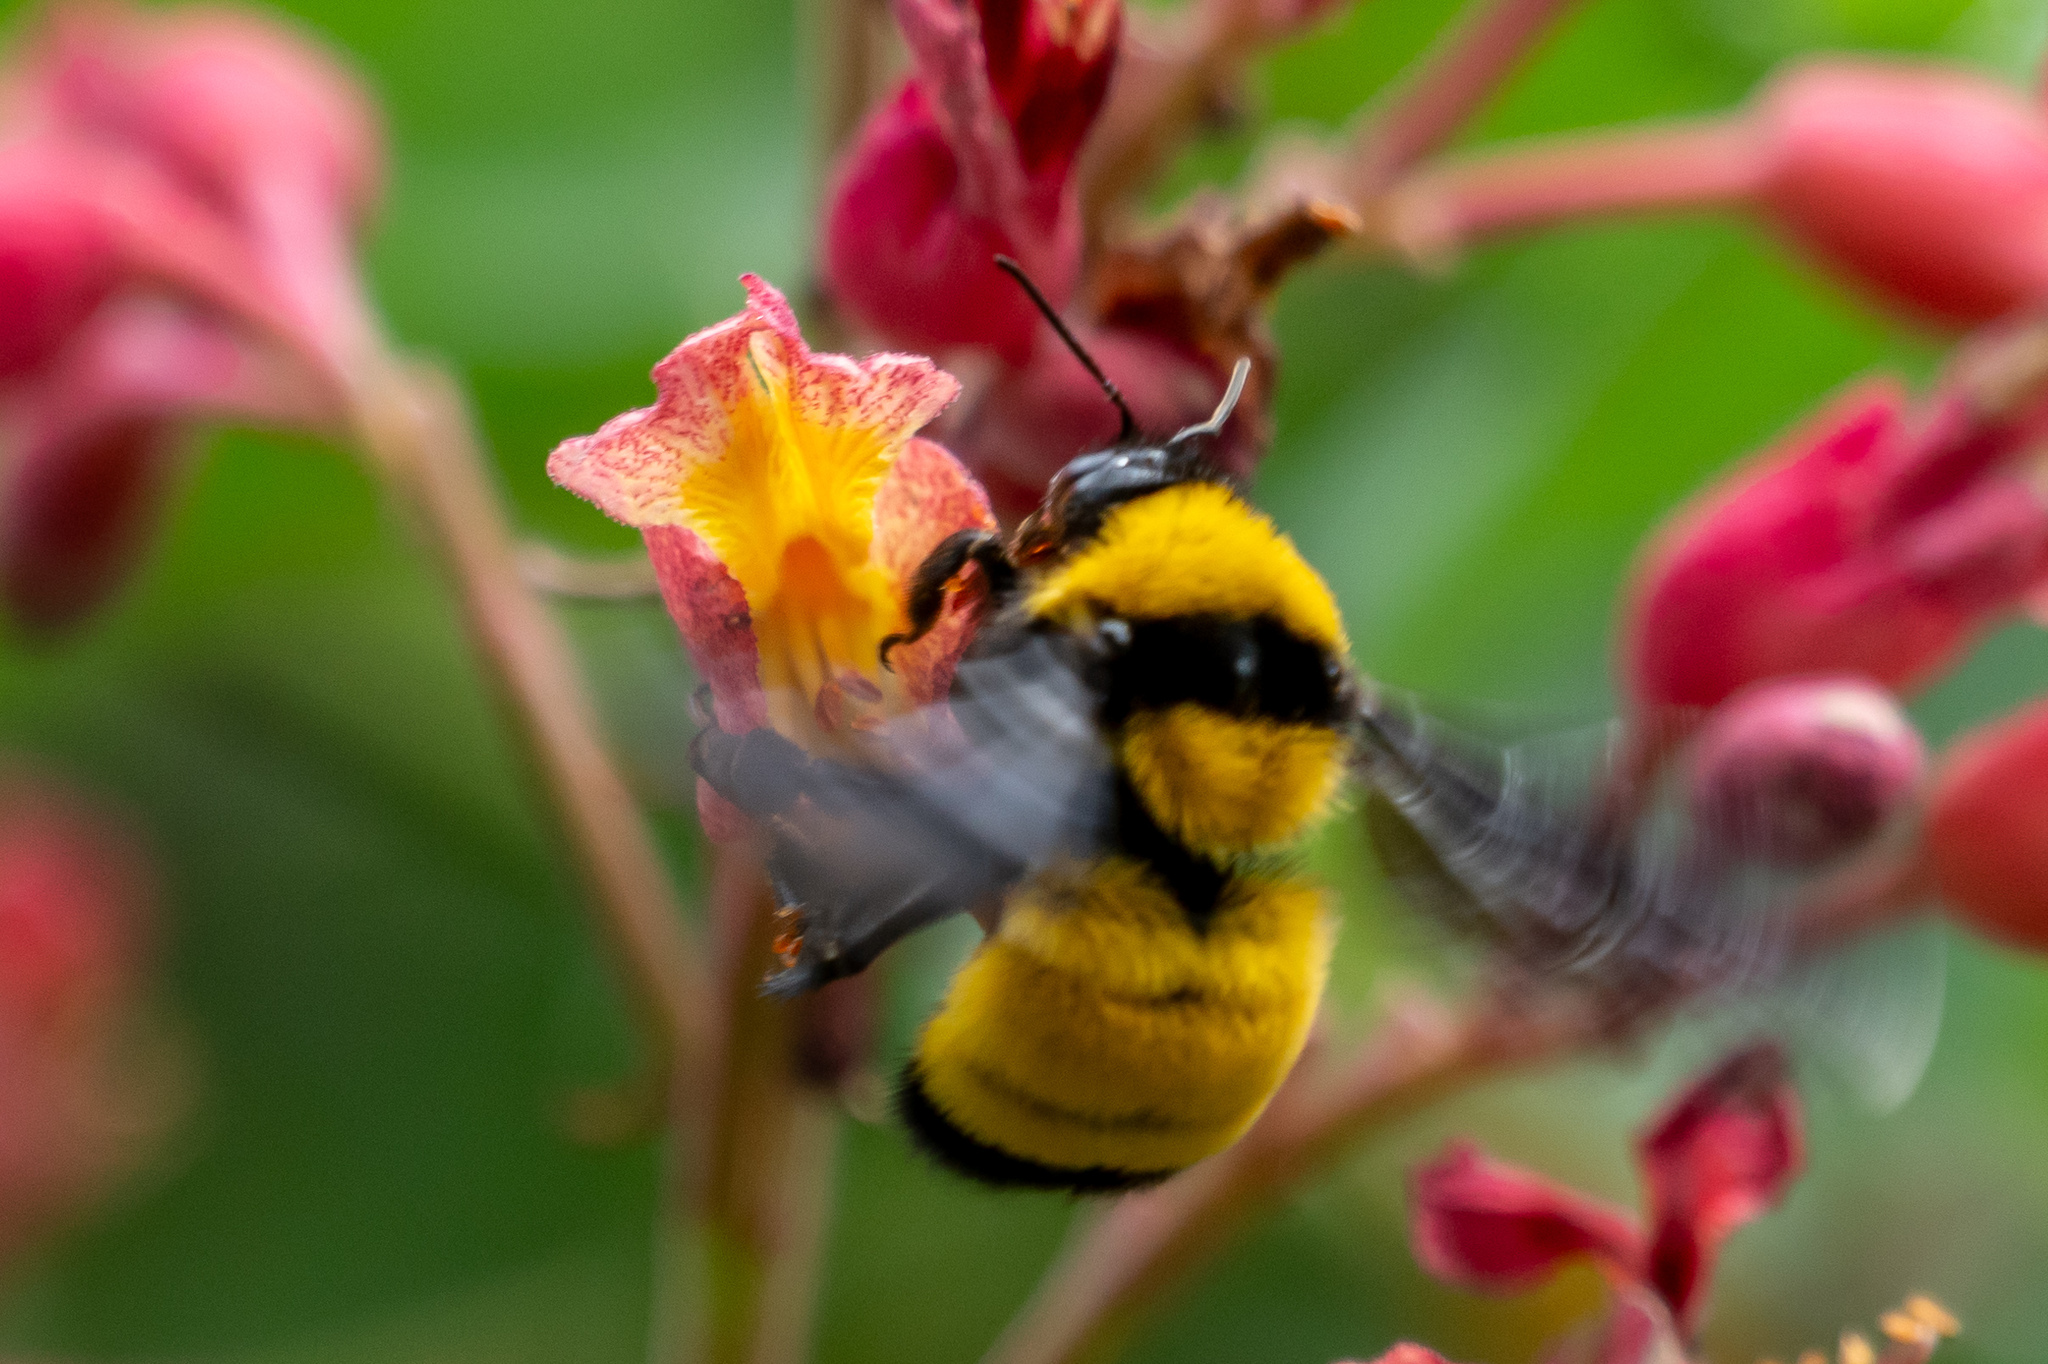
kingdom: Animalia
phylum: Arthropoda
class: Insecta
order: Hymenoptera
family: Apidae
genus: Bombus
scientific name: Bombus sonorus
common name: Sonoran bumble bee
